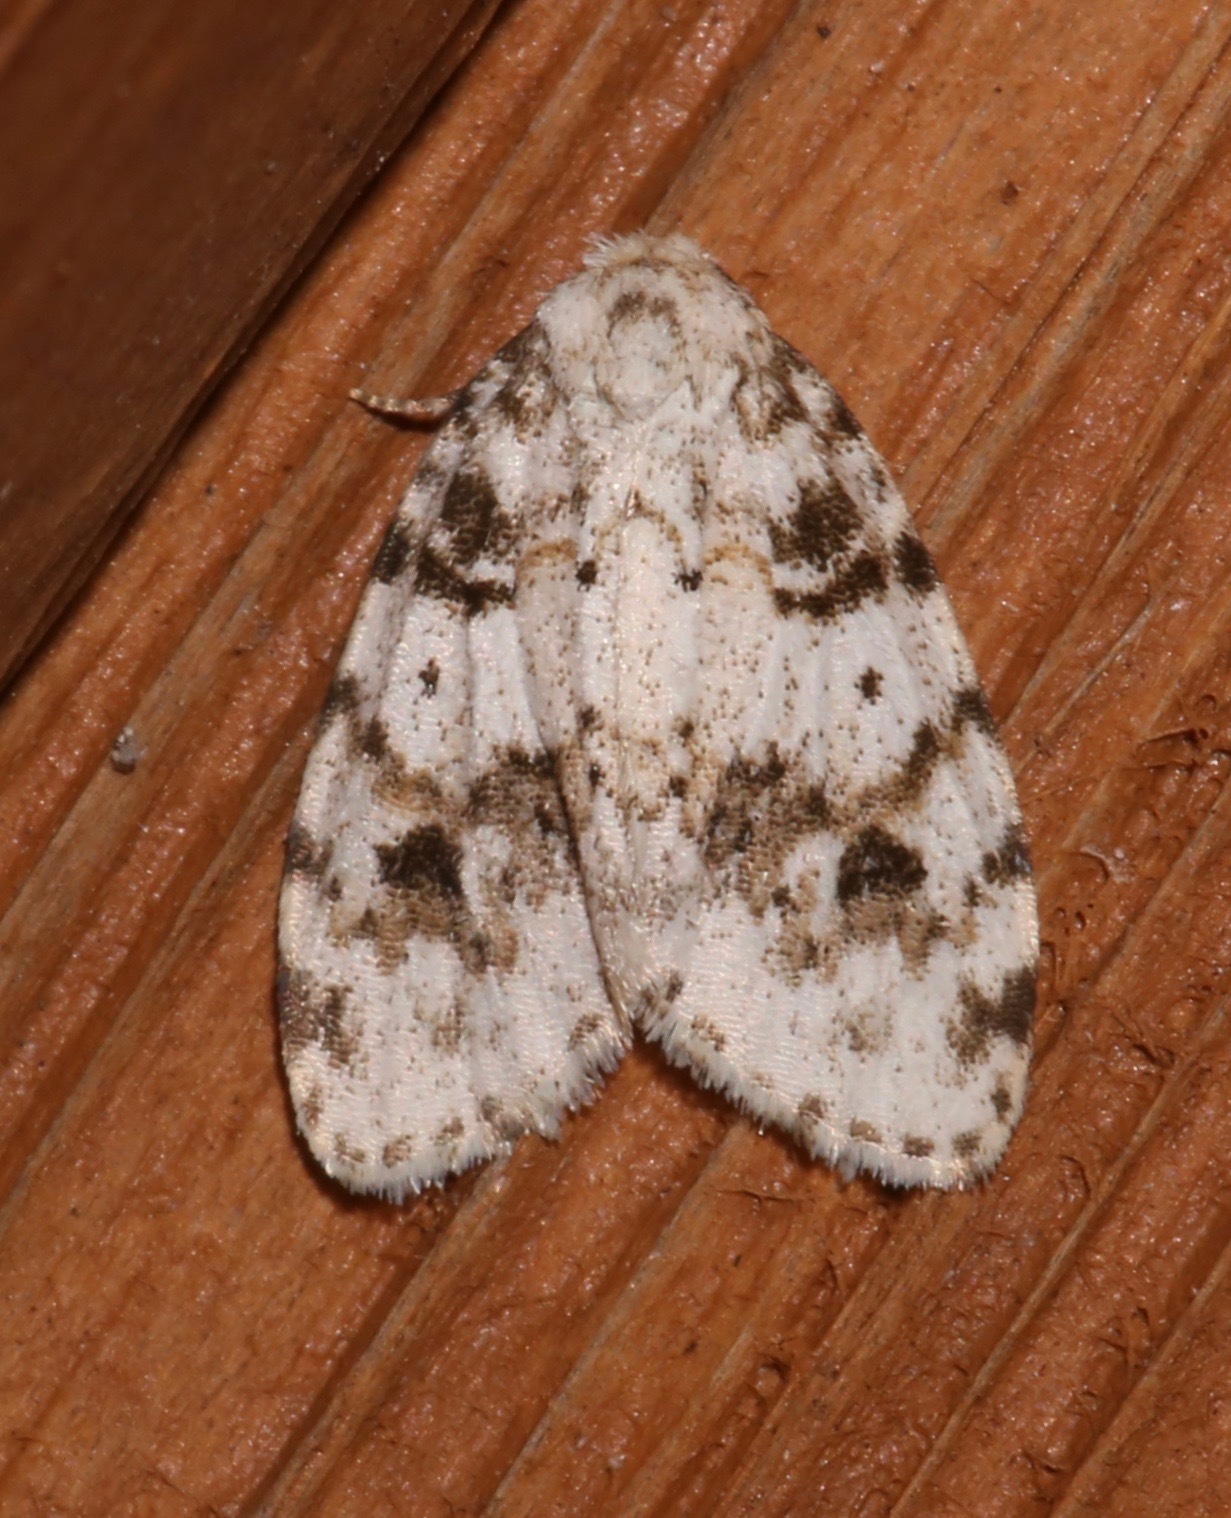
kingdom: Animalia
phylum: Arthropoda
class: Insecta
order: Lepidoptera
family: Erebidae
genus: Clemensia
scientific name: Clemensia ochreata
